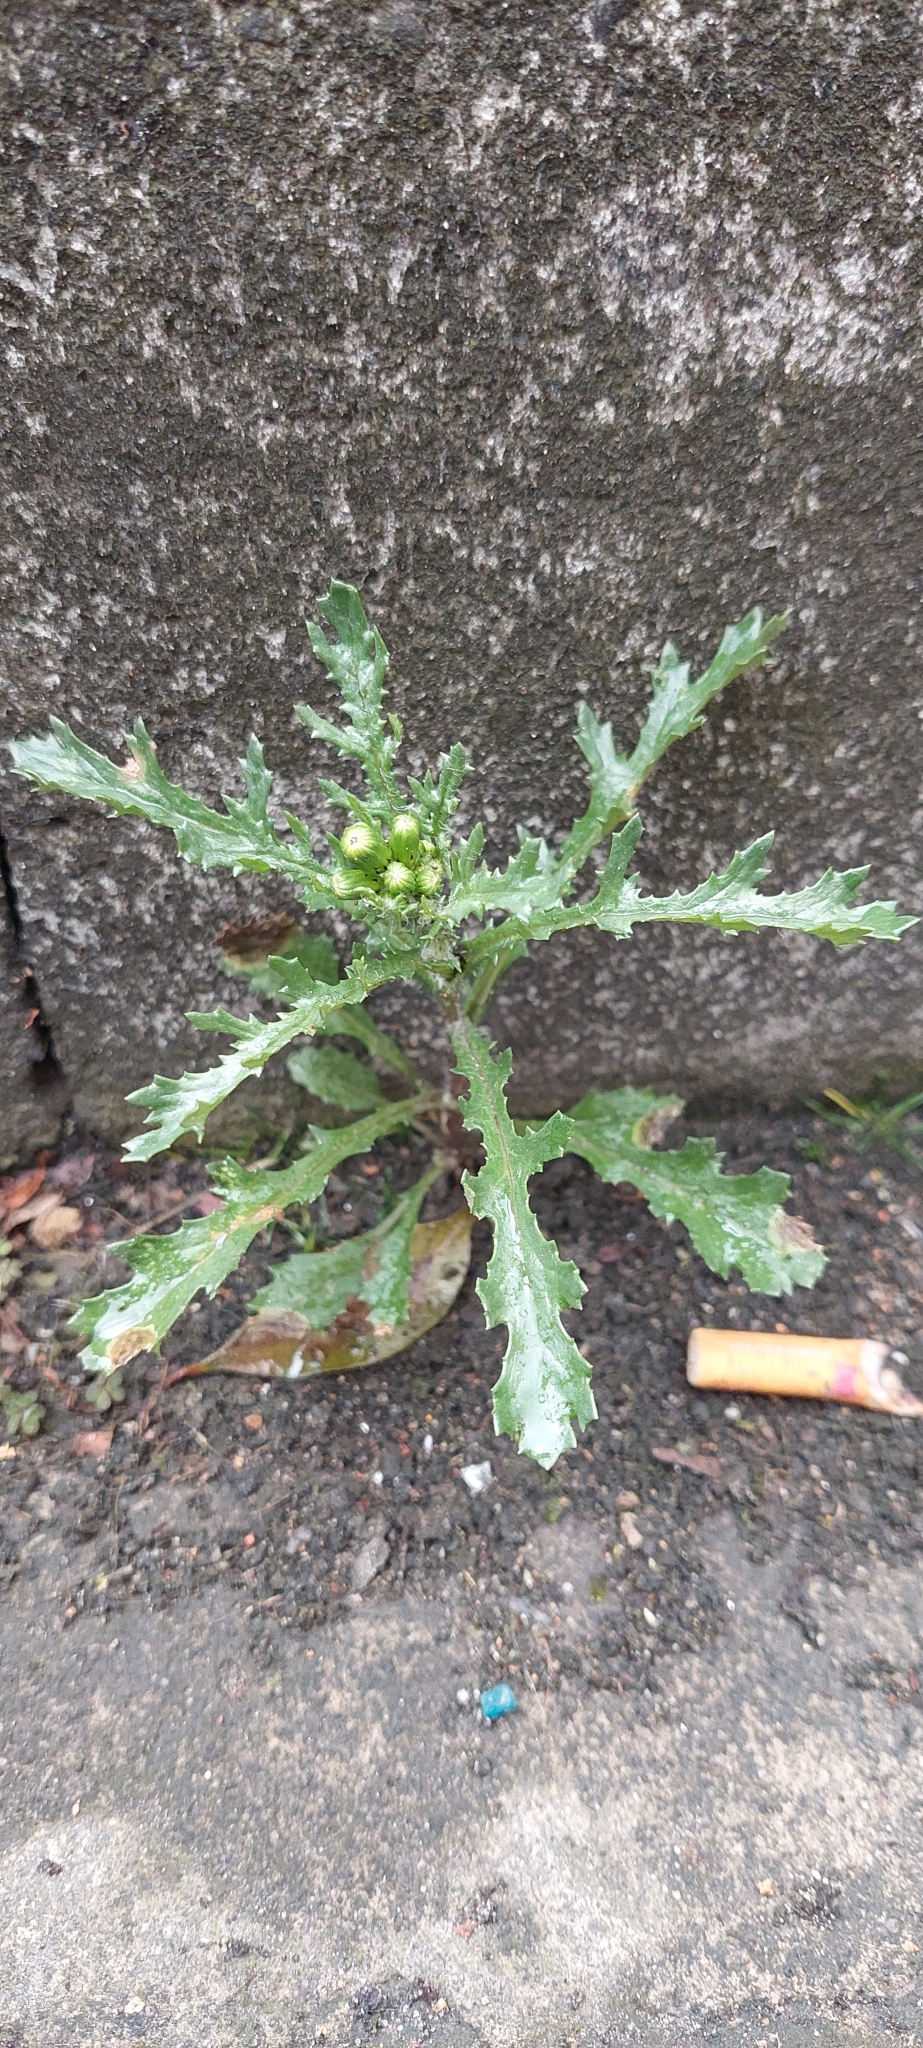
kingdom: Plantae
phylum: Tracheophyta
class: Magnoliopsida
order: Asterales
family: Asteraceae
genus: Senecio
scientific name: Senecio vulgaris
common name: Old-man-in-the-spring
